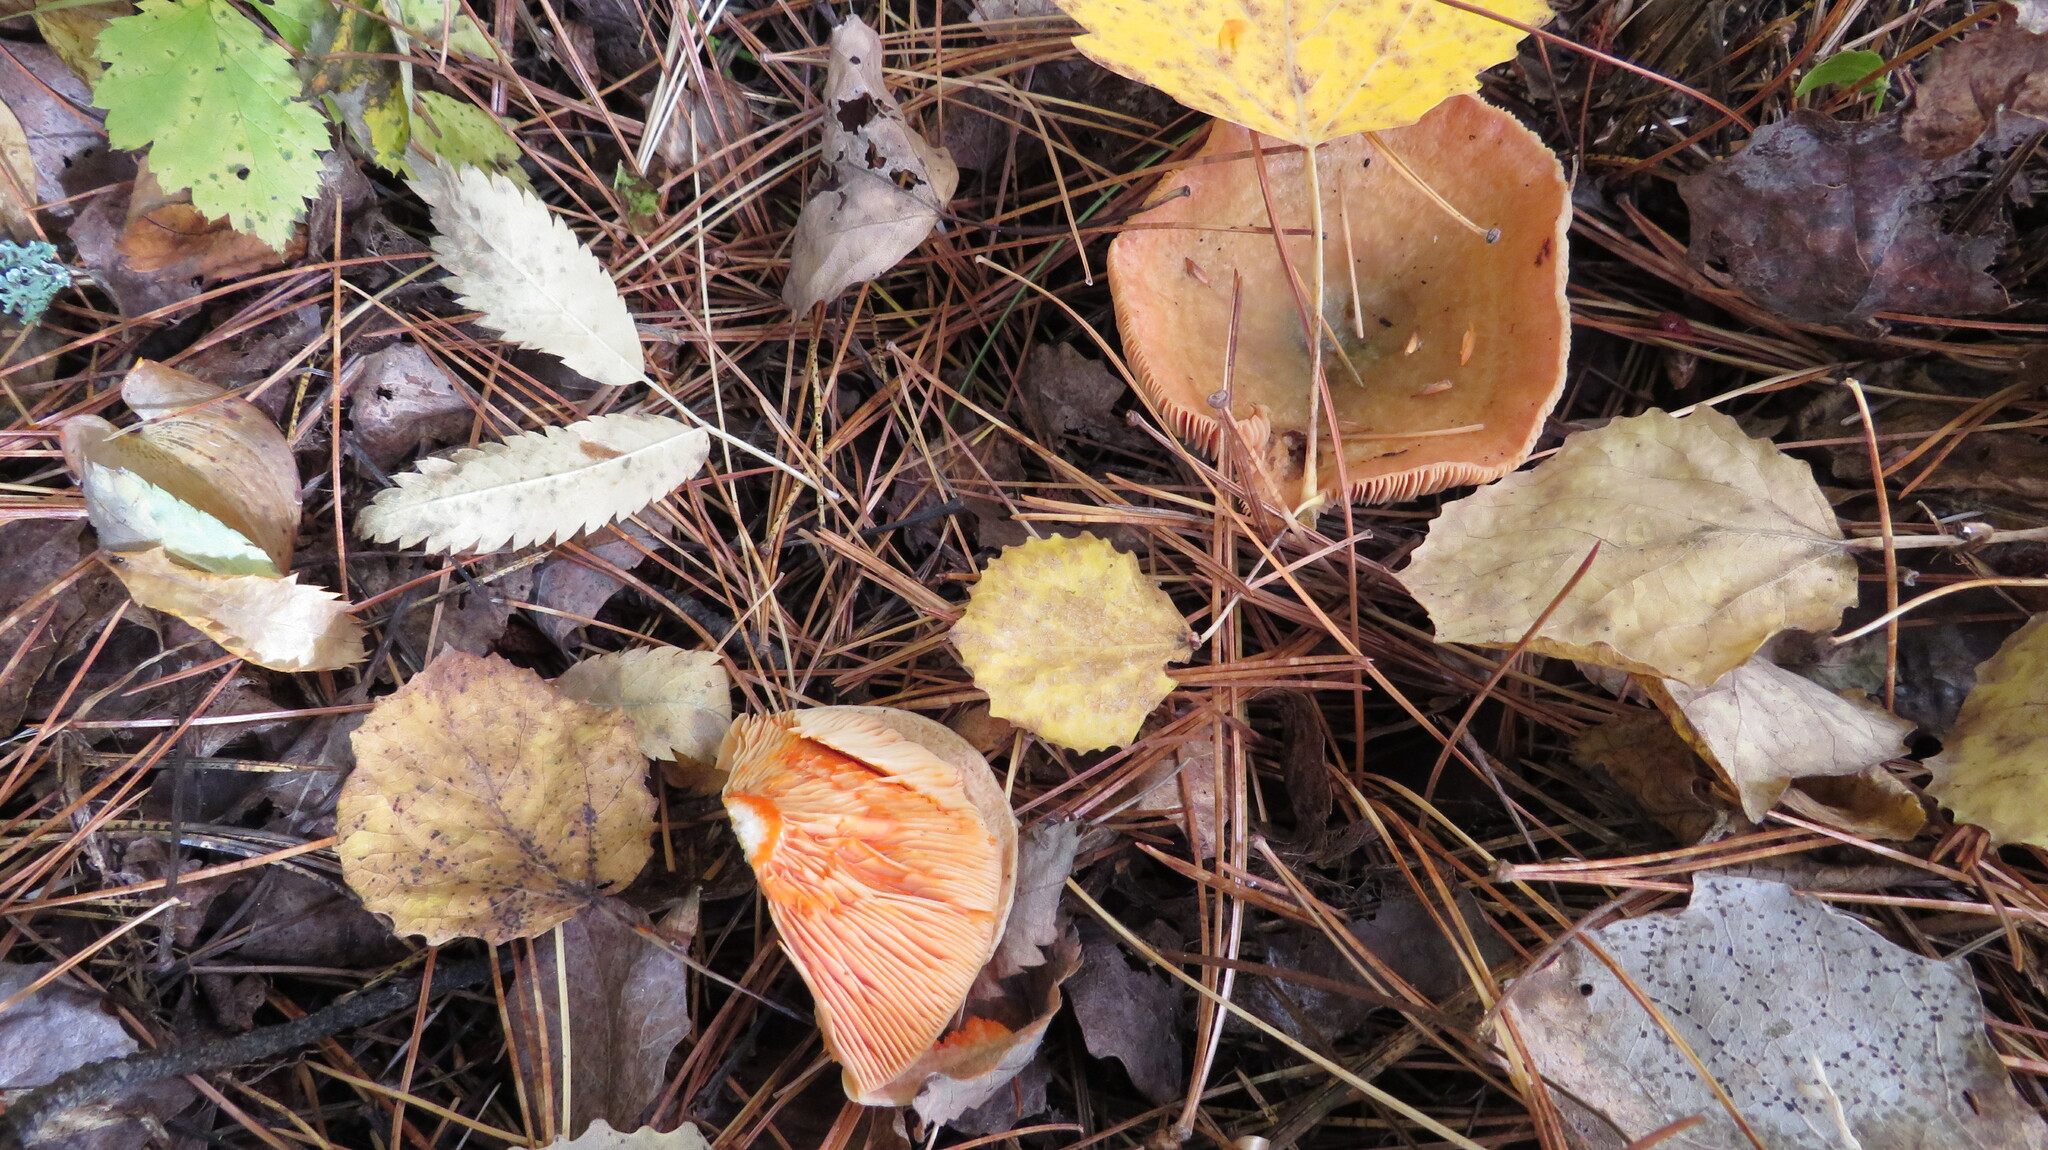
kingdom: Fungi
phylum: Basidiomycota
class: Agaricomycetes
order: Russulales
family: Russulaceae
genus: Lactarius
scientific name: Lactarius deterrimus
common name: False saffron milkcap
